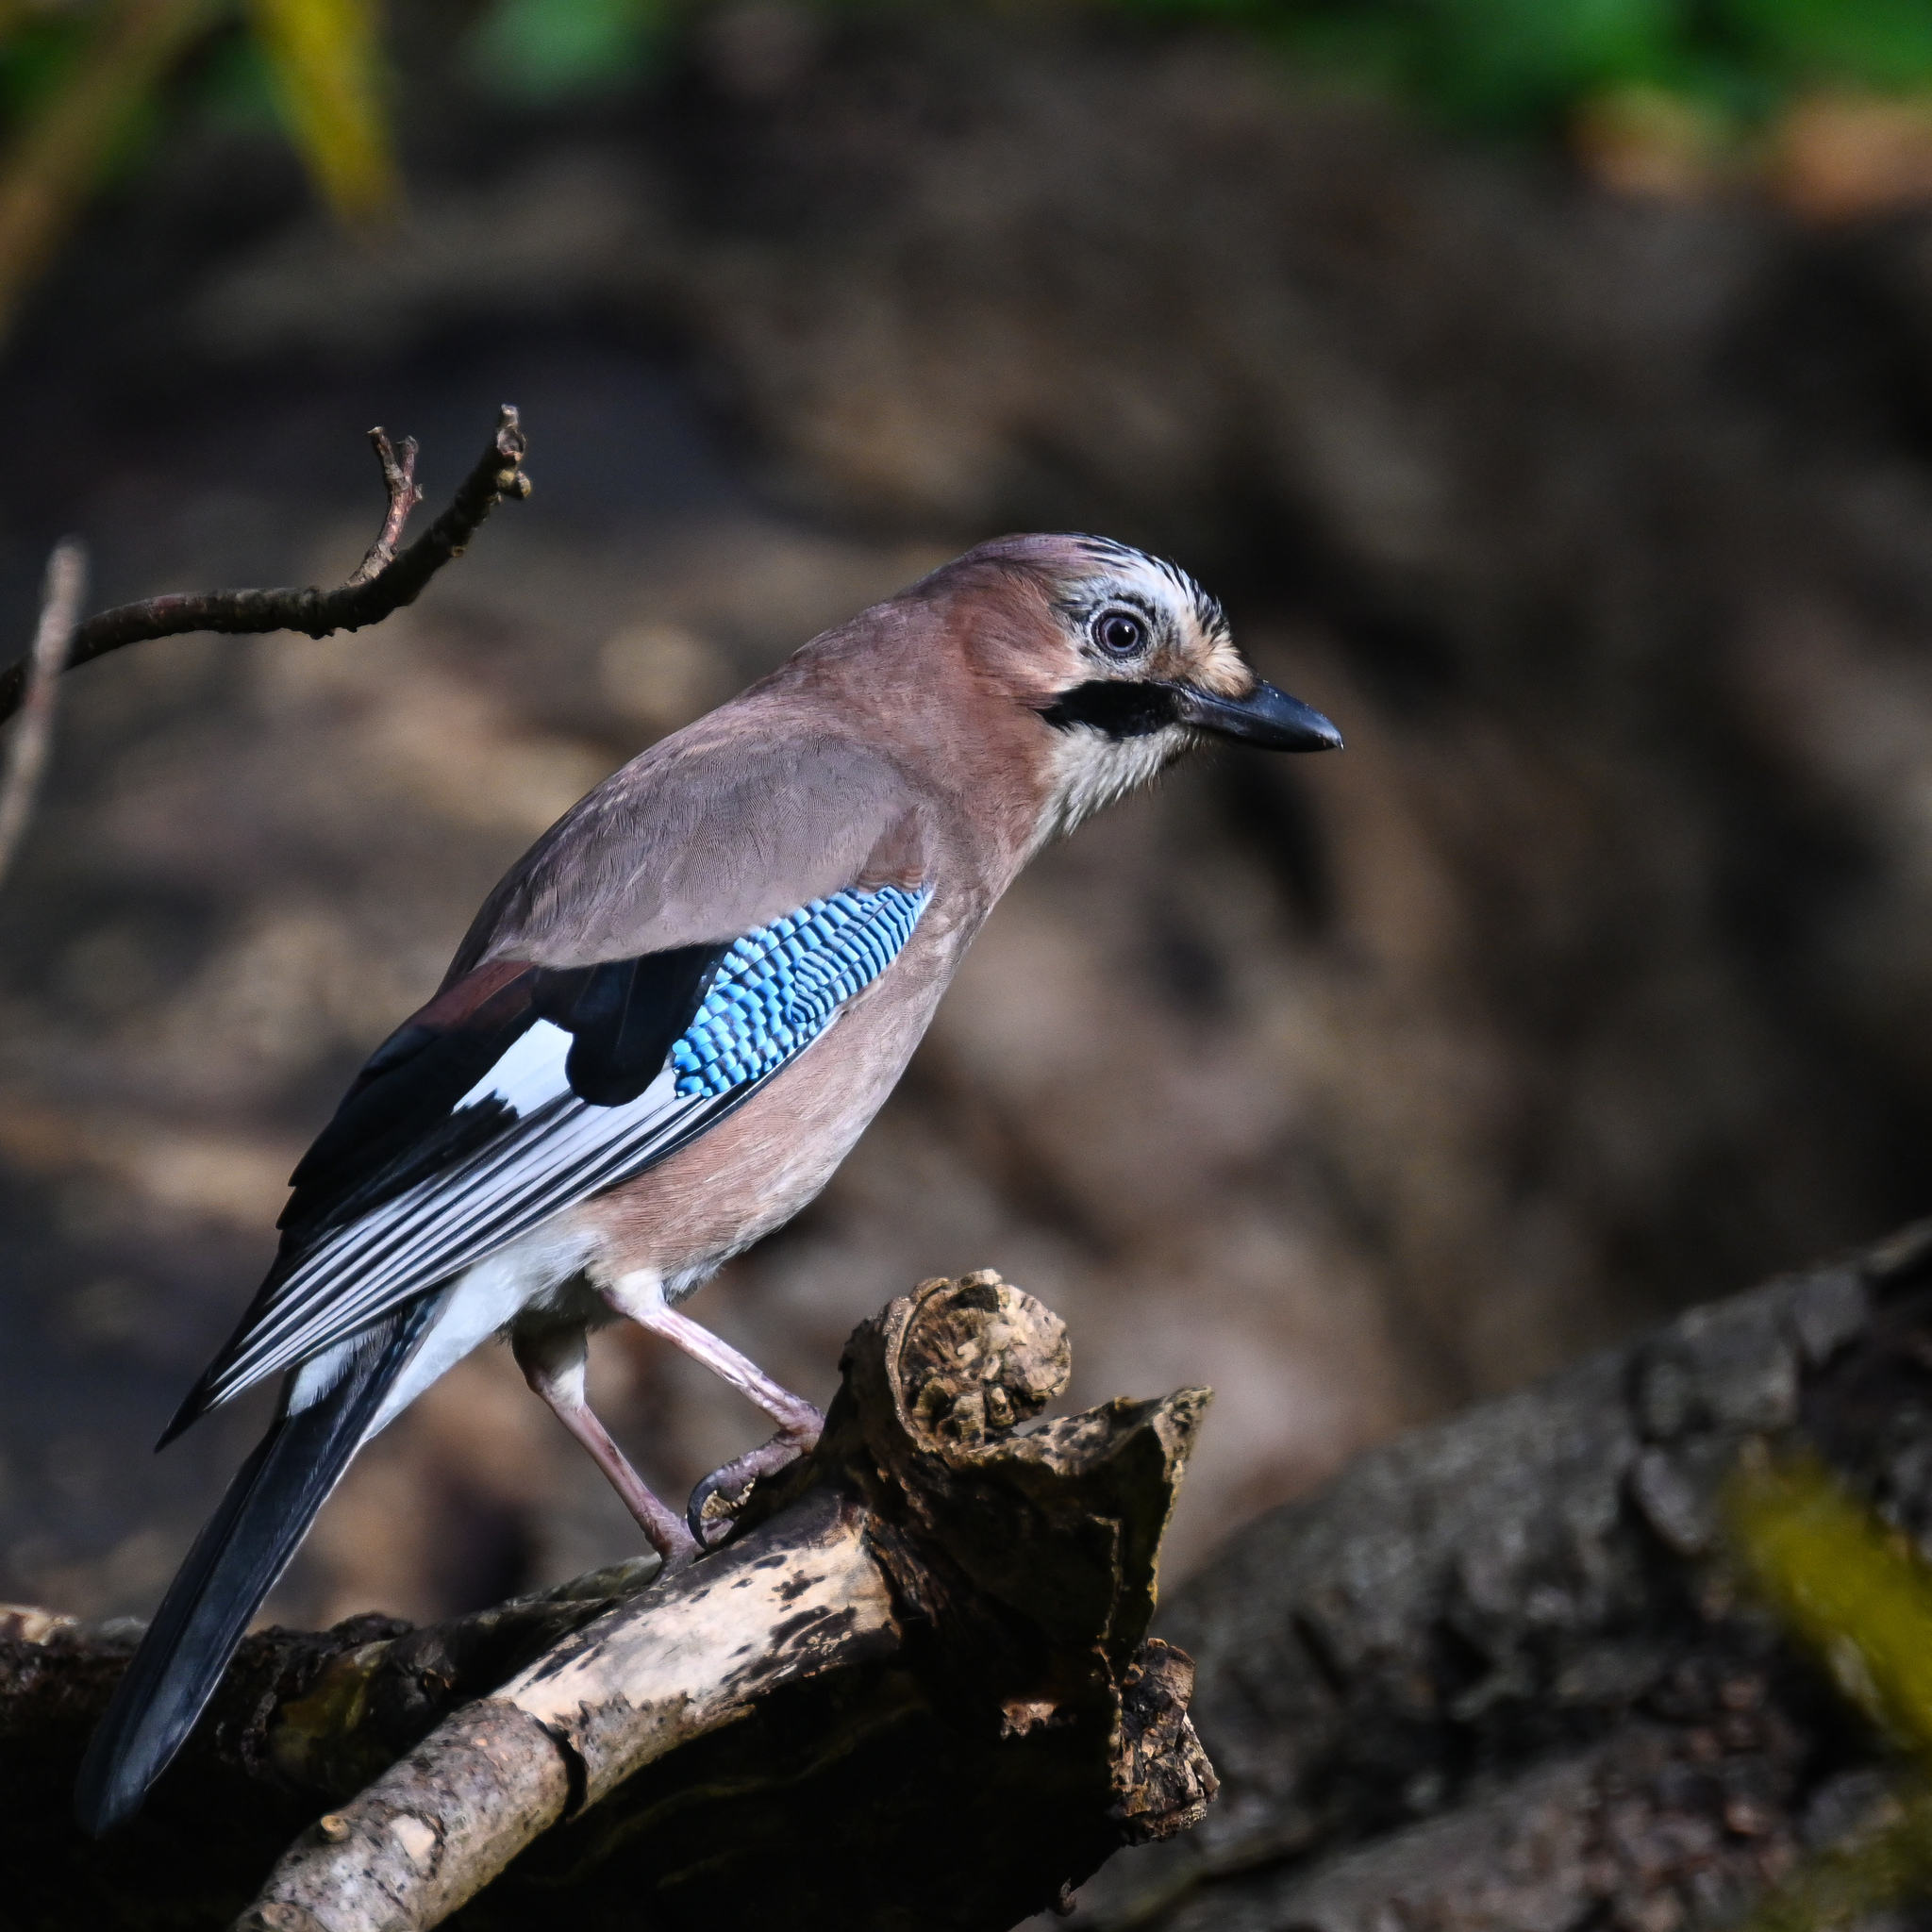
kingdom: Animalia
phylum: Chordata
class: Aves
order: Passeriformes
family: Corvidae
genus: Garrulus
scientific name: Garrulus glandarius
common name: Eurasian jay
